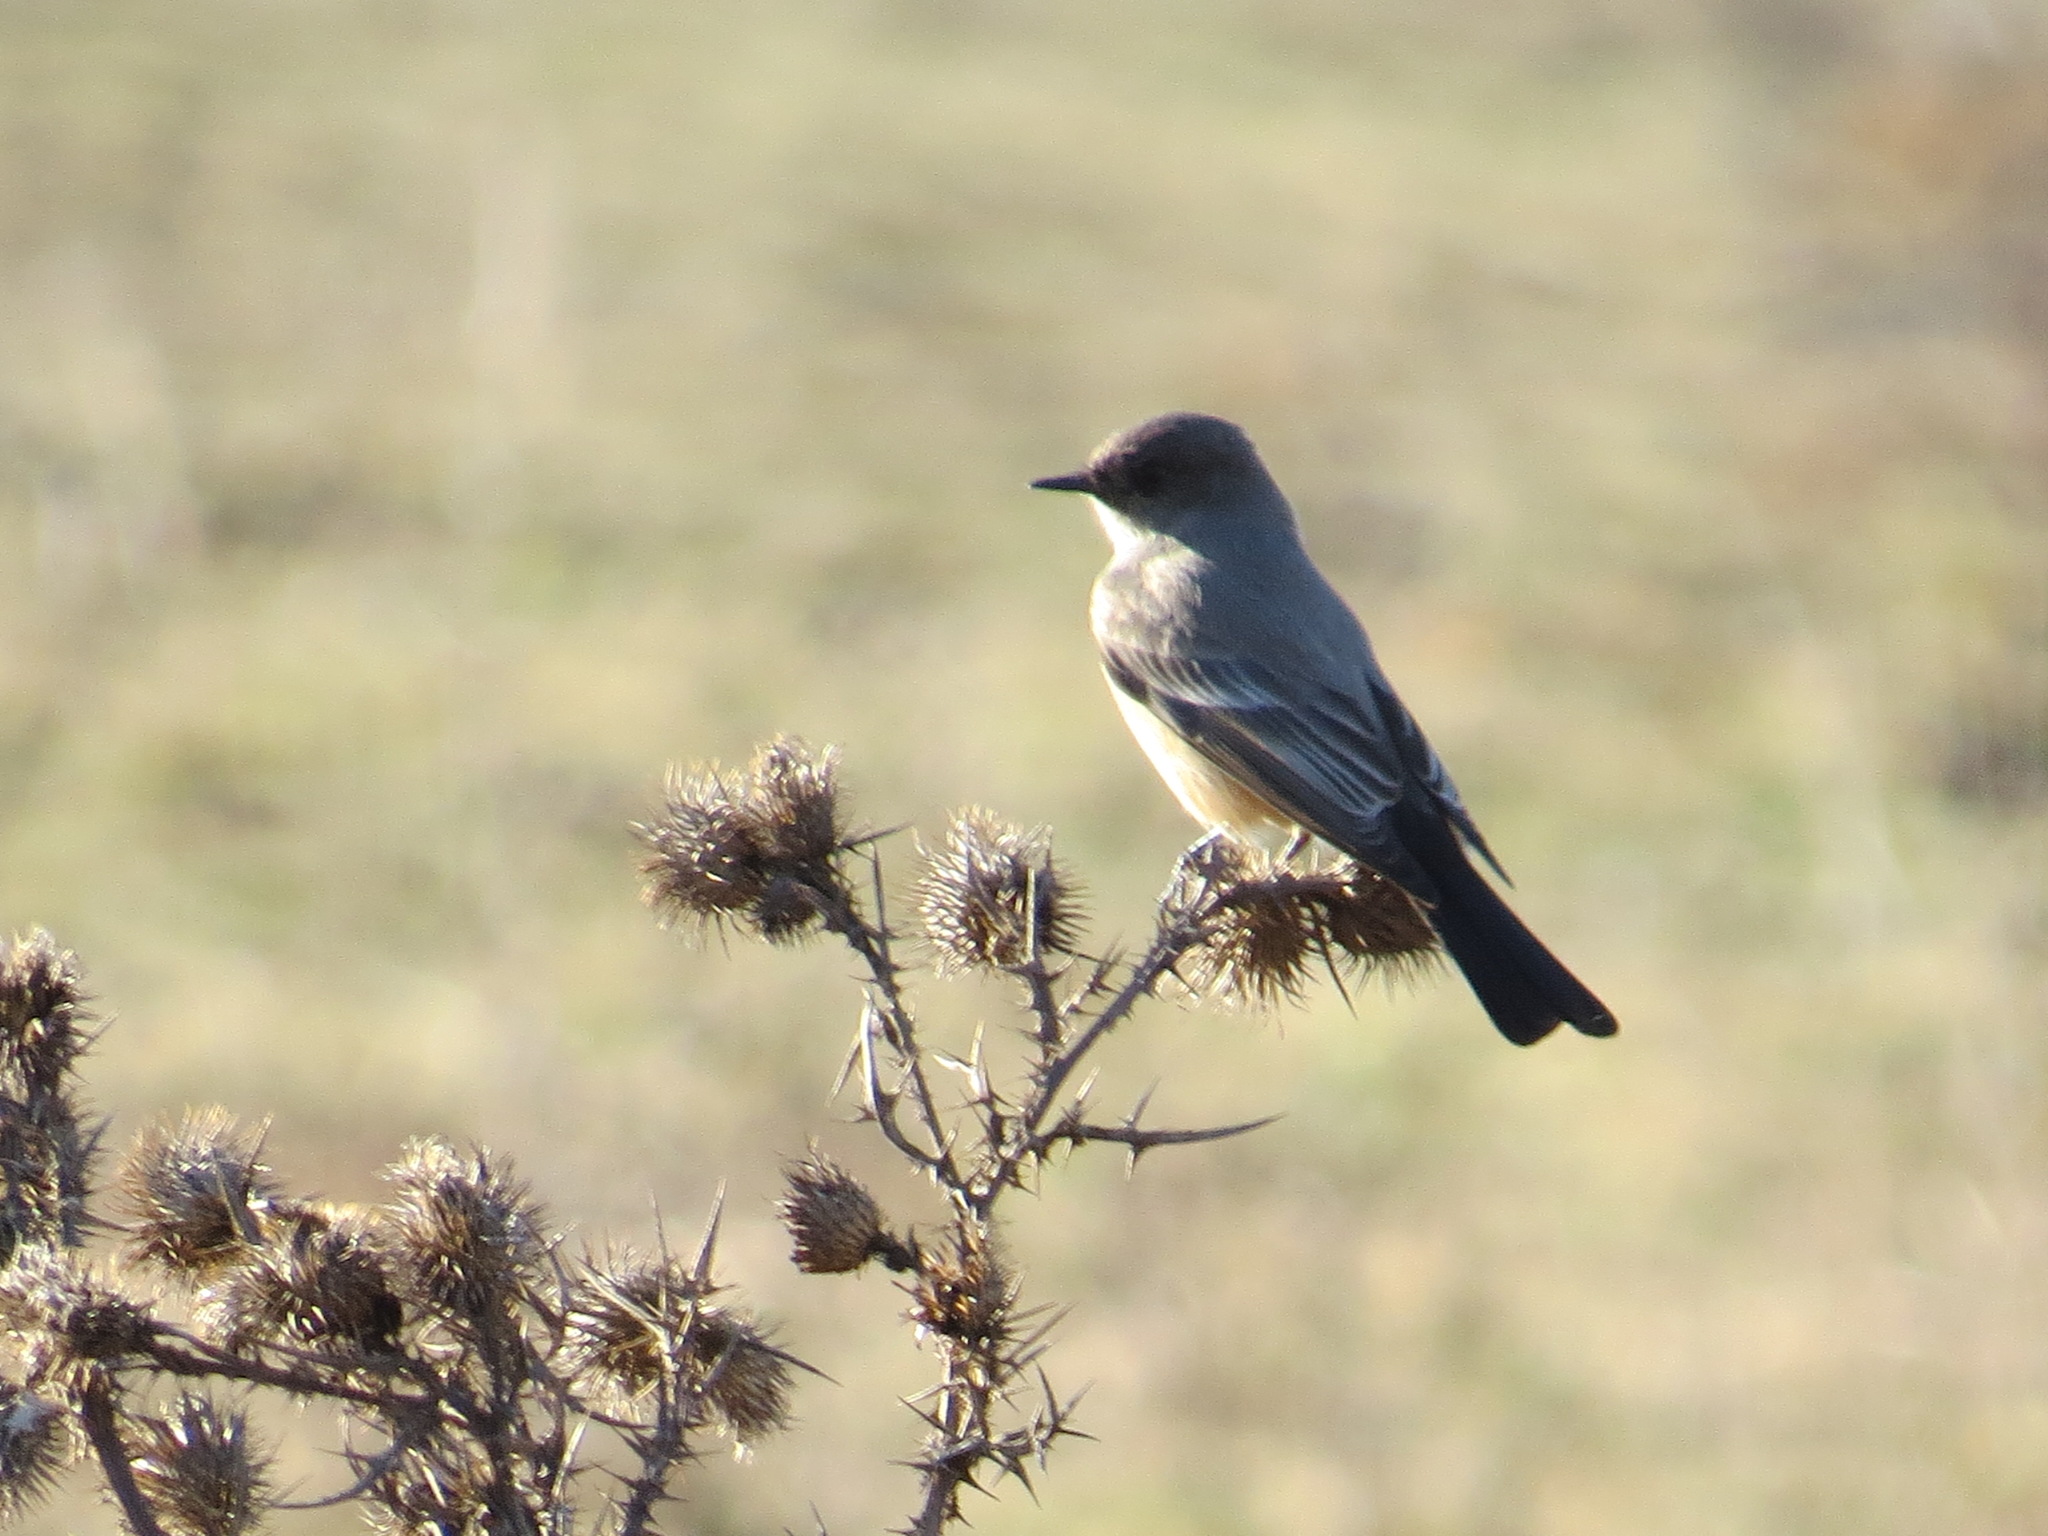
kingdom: Animalia
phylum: Chordata
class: Aves
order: Passeriformes
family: Tyrannidae
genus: Sayornis
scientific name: Sayornis saya
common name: Say's phoebe
